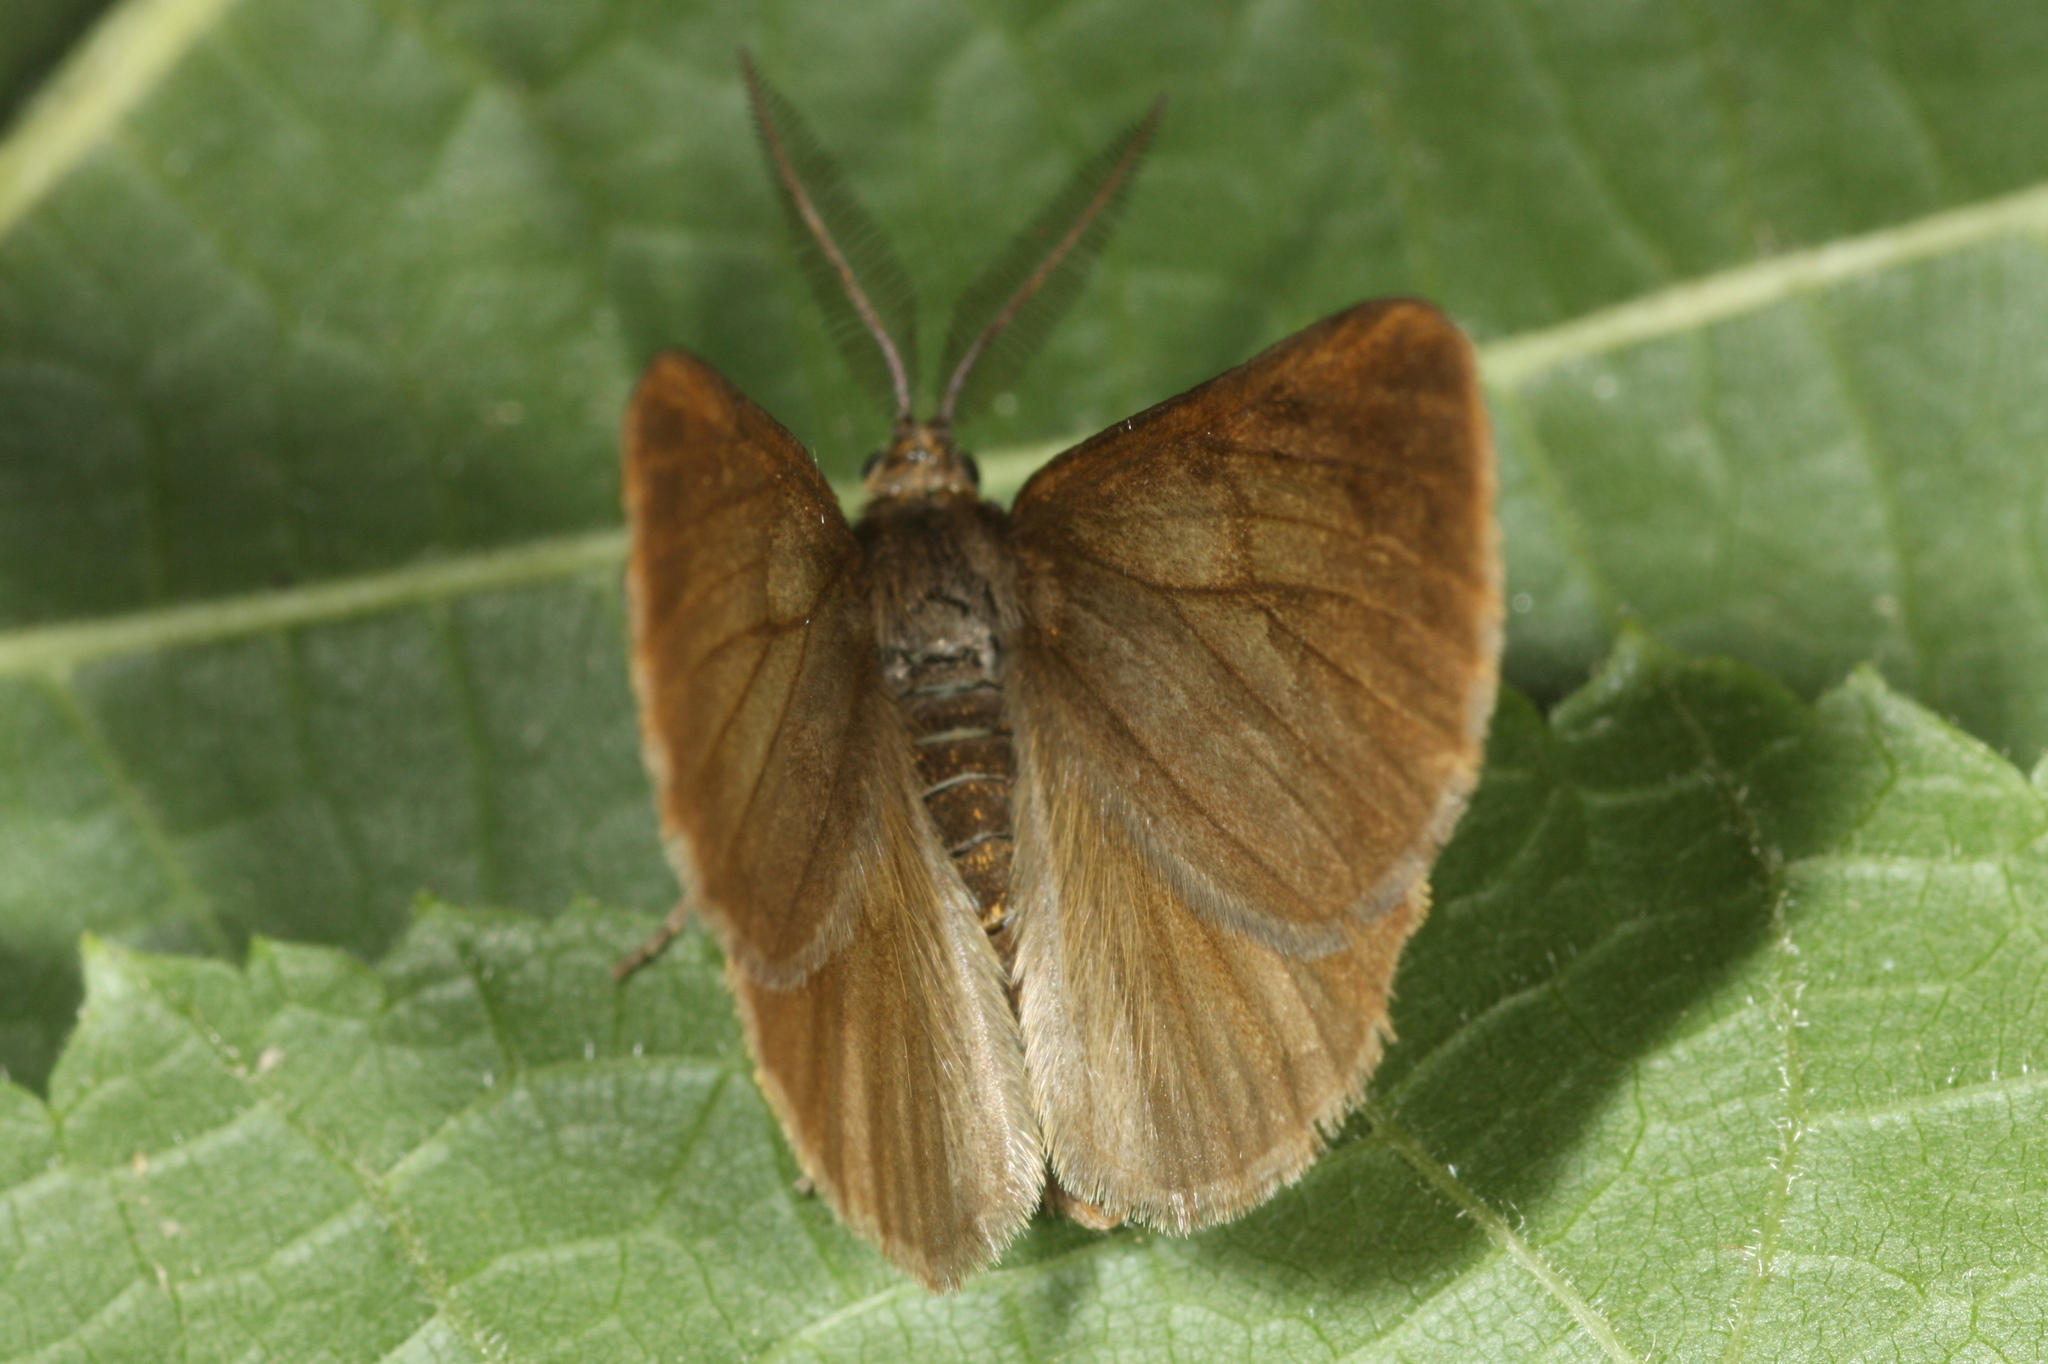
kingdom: Animalia
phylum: Arthropoda
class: Insecta
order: Lepidoptera
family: Geometridae
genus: Bupalus
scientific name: Bupalus piniaria
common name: Bordered white
